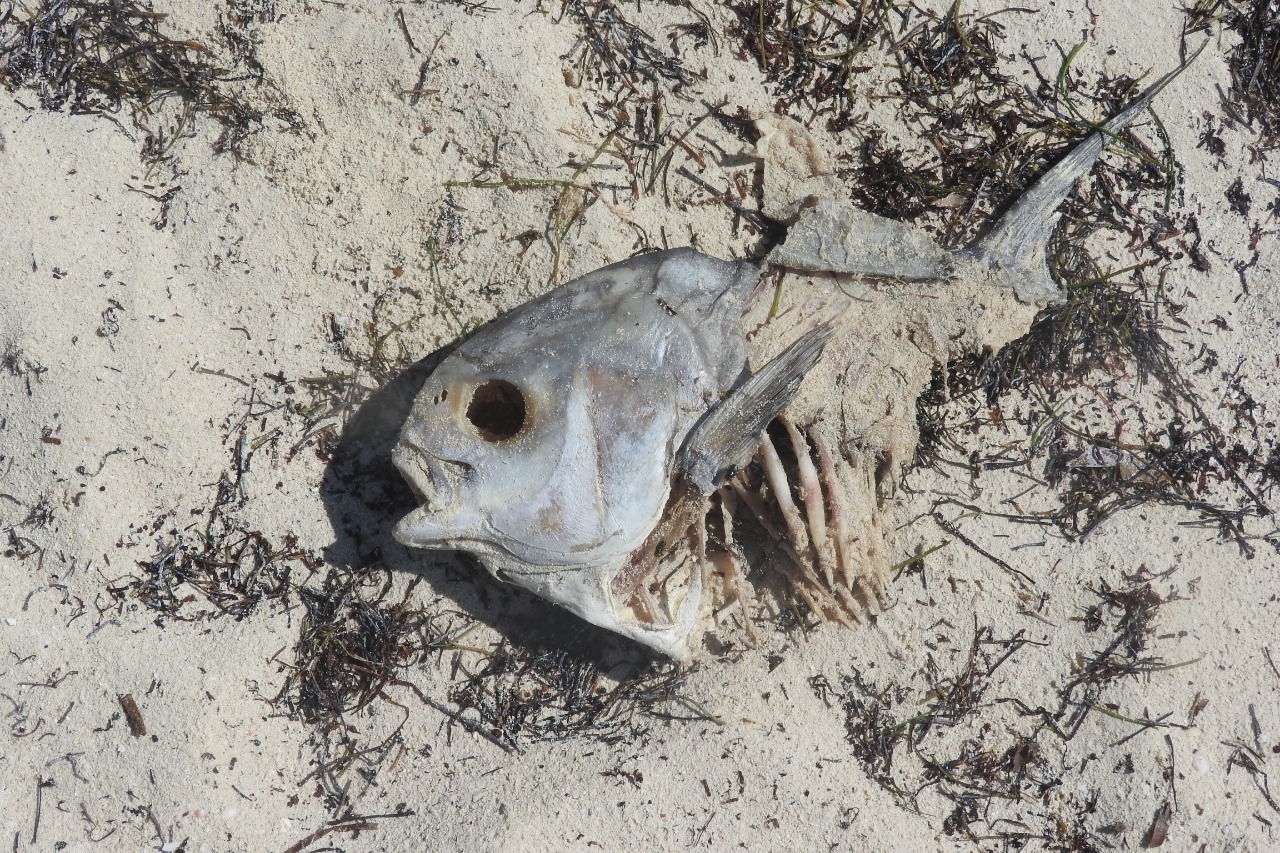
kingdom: Animalia
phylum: Chordata
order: Perciformes
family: Carangidae
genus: Trachinotus
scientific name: Trachinotus falcatus
